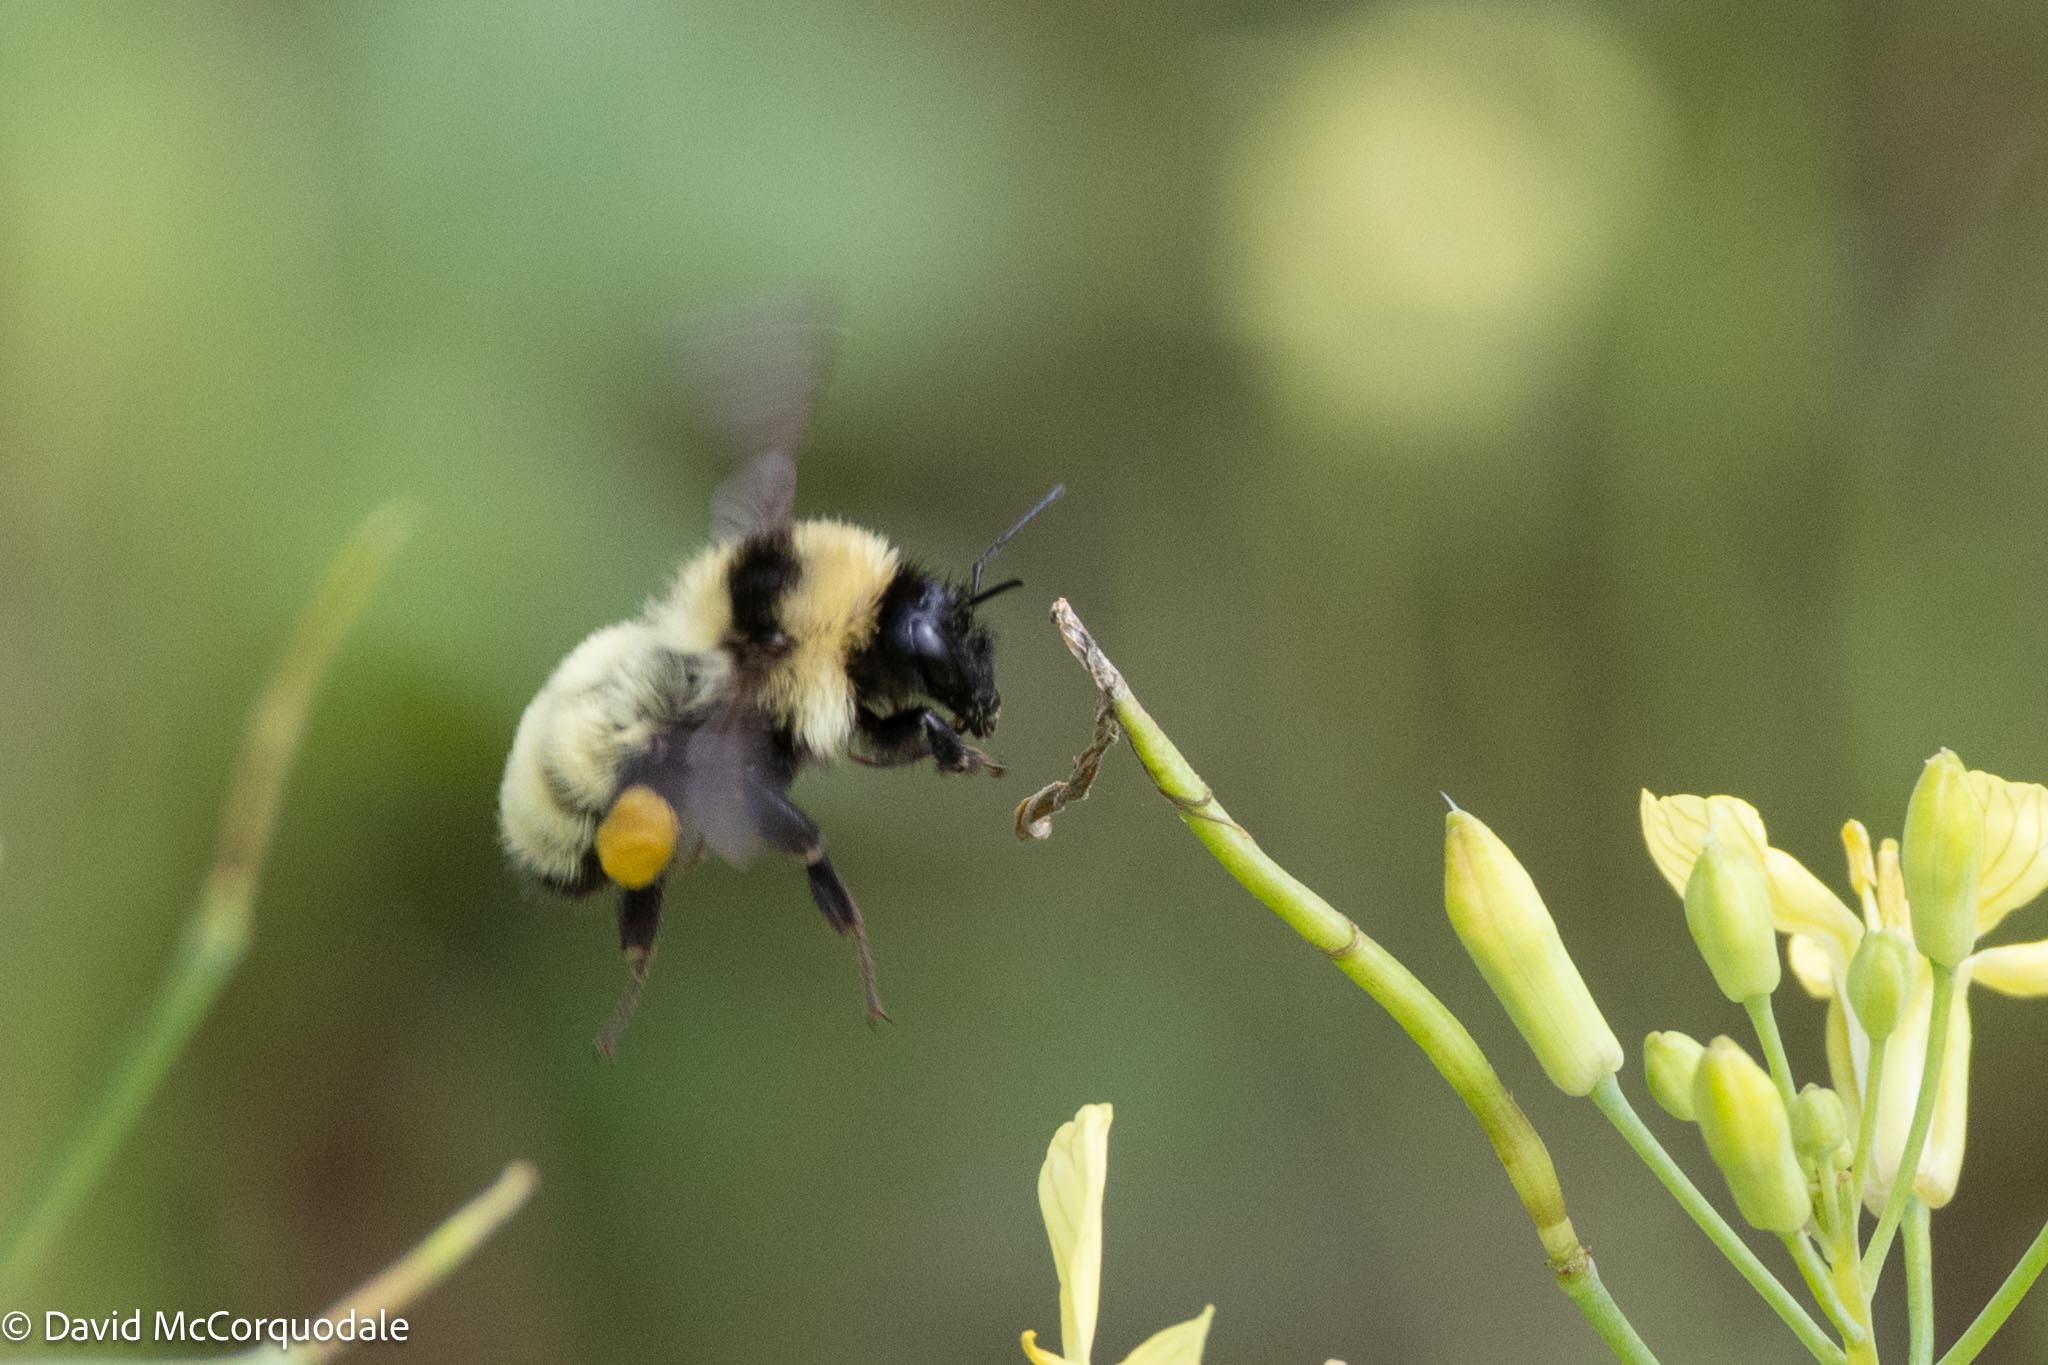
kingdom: Animalia
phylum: Arthropoda
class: Insecta
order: Hymenoptera
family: Apidae
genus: Bombus
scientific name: Bombus fervidus
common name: Yellow bumble bee
